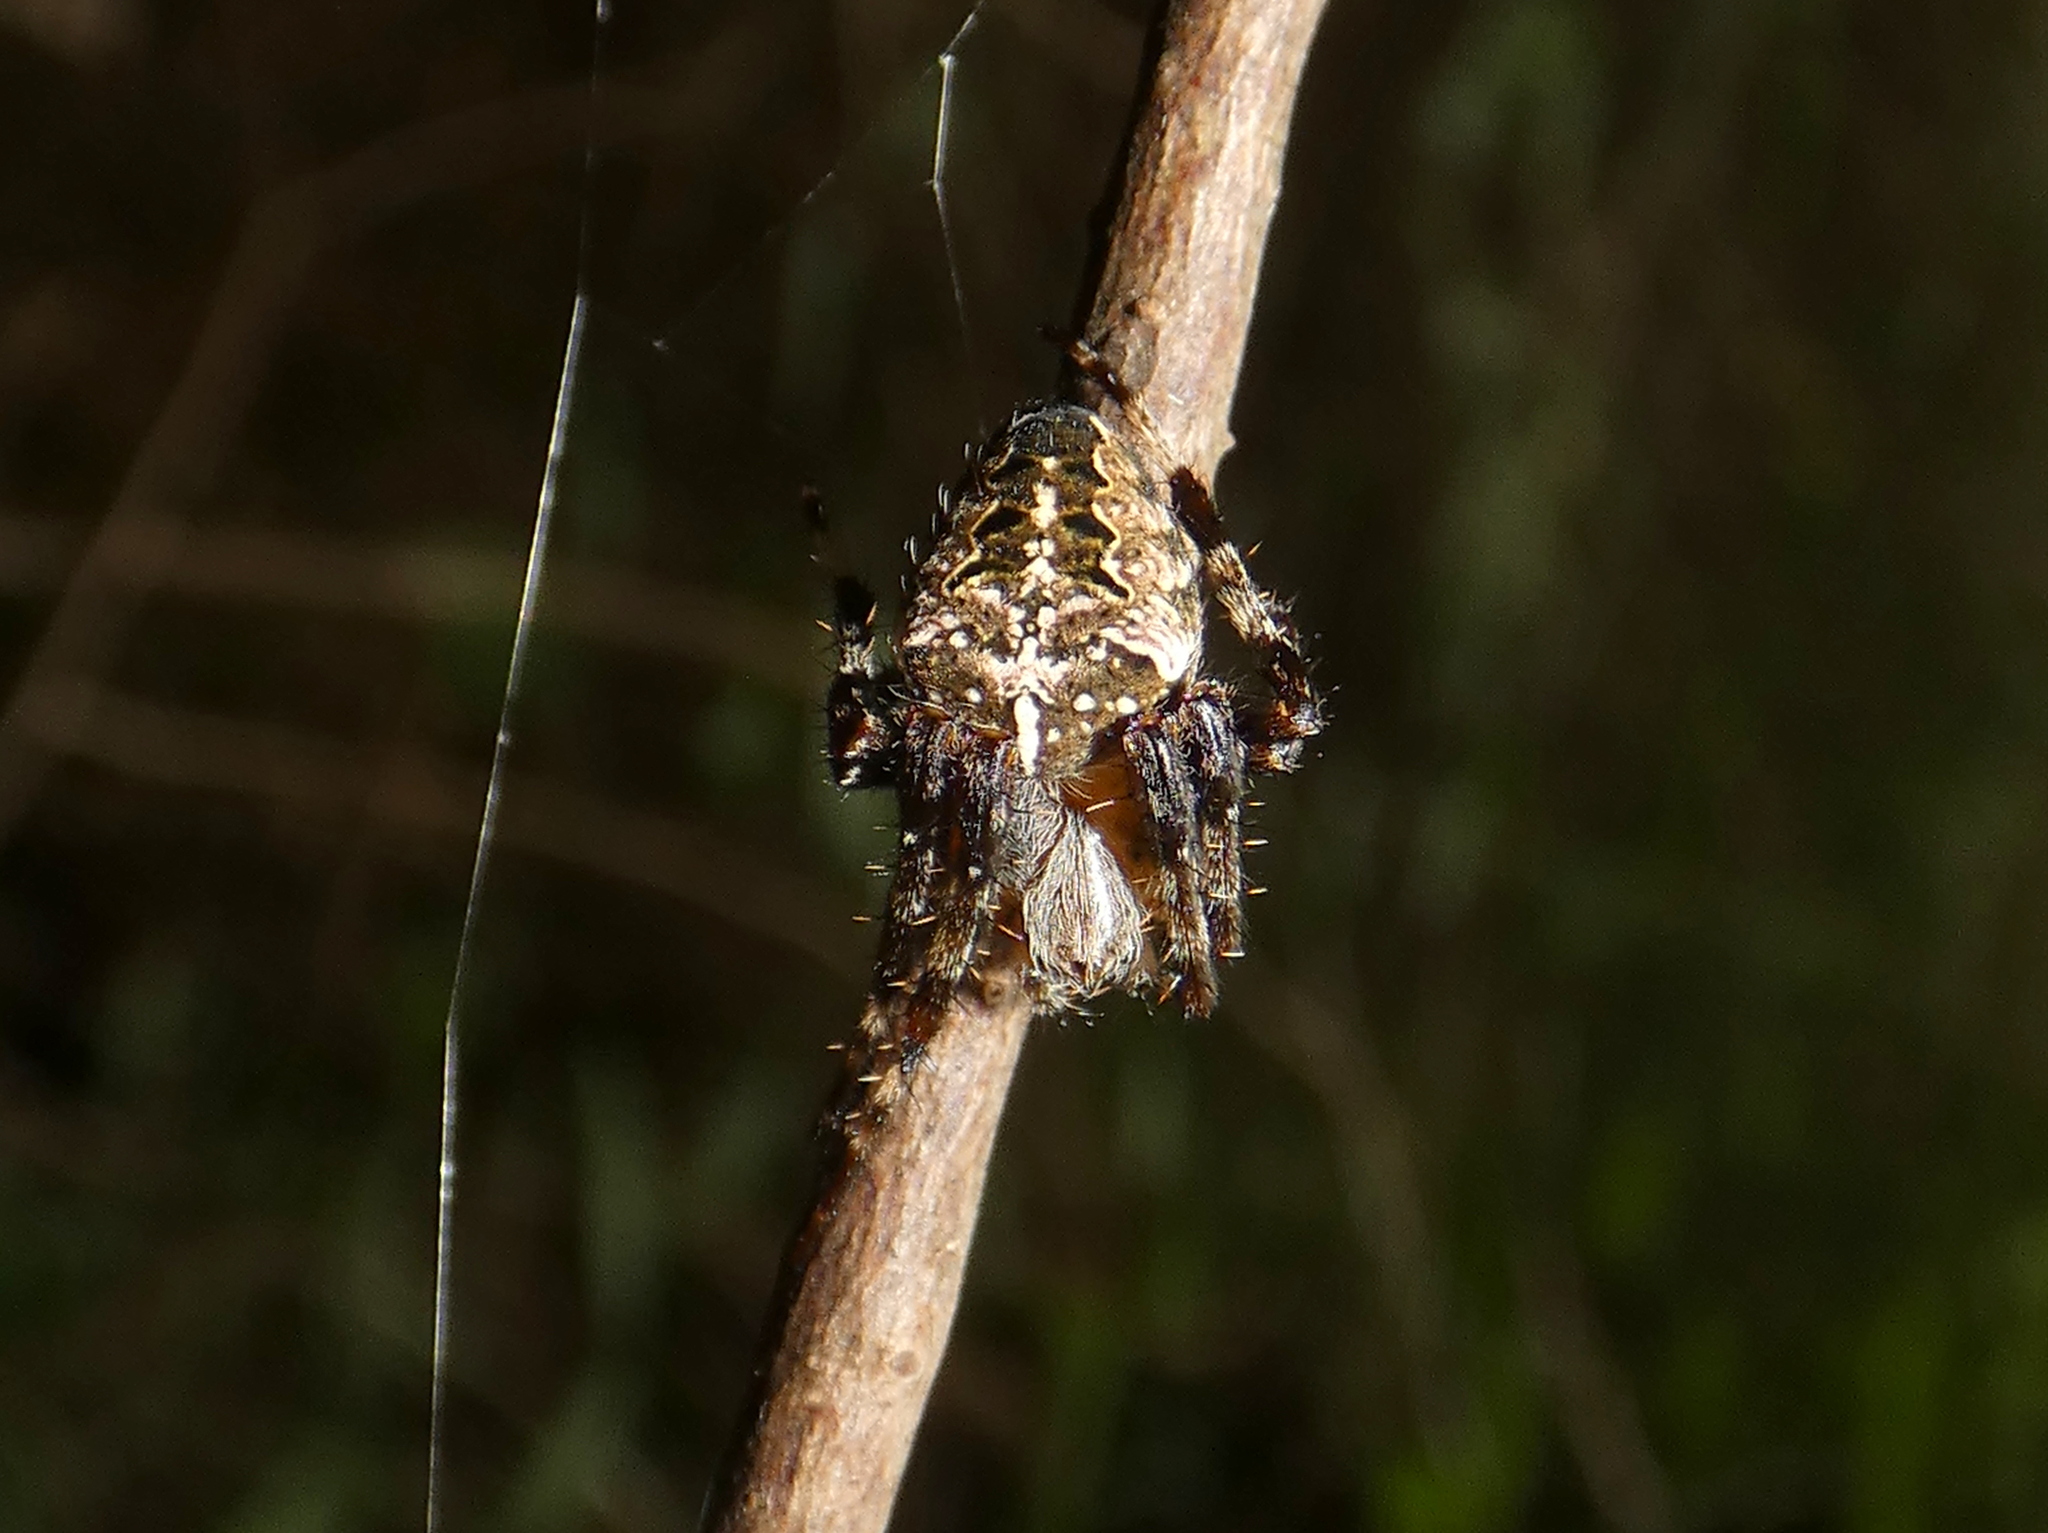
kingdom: Animalia
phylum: Arthropoda
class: Arachnida
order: Araneae
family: Araneidae
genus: Araneus
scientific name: Araneus nordmanni
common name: Nordmann's orbweaver
